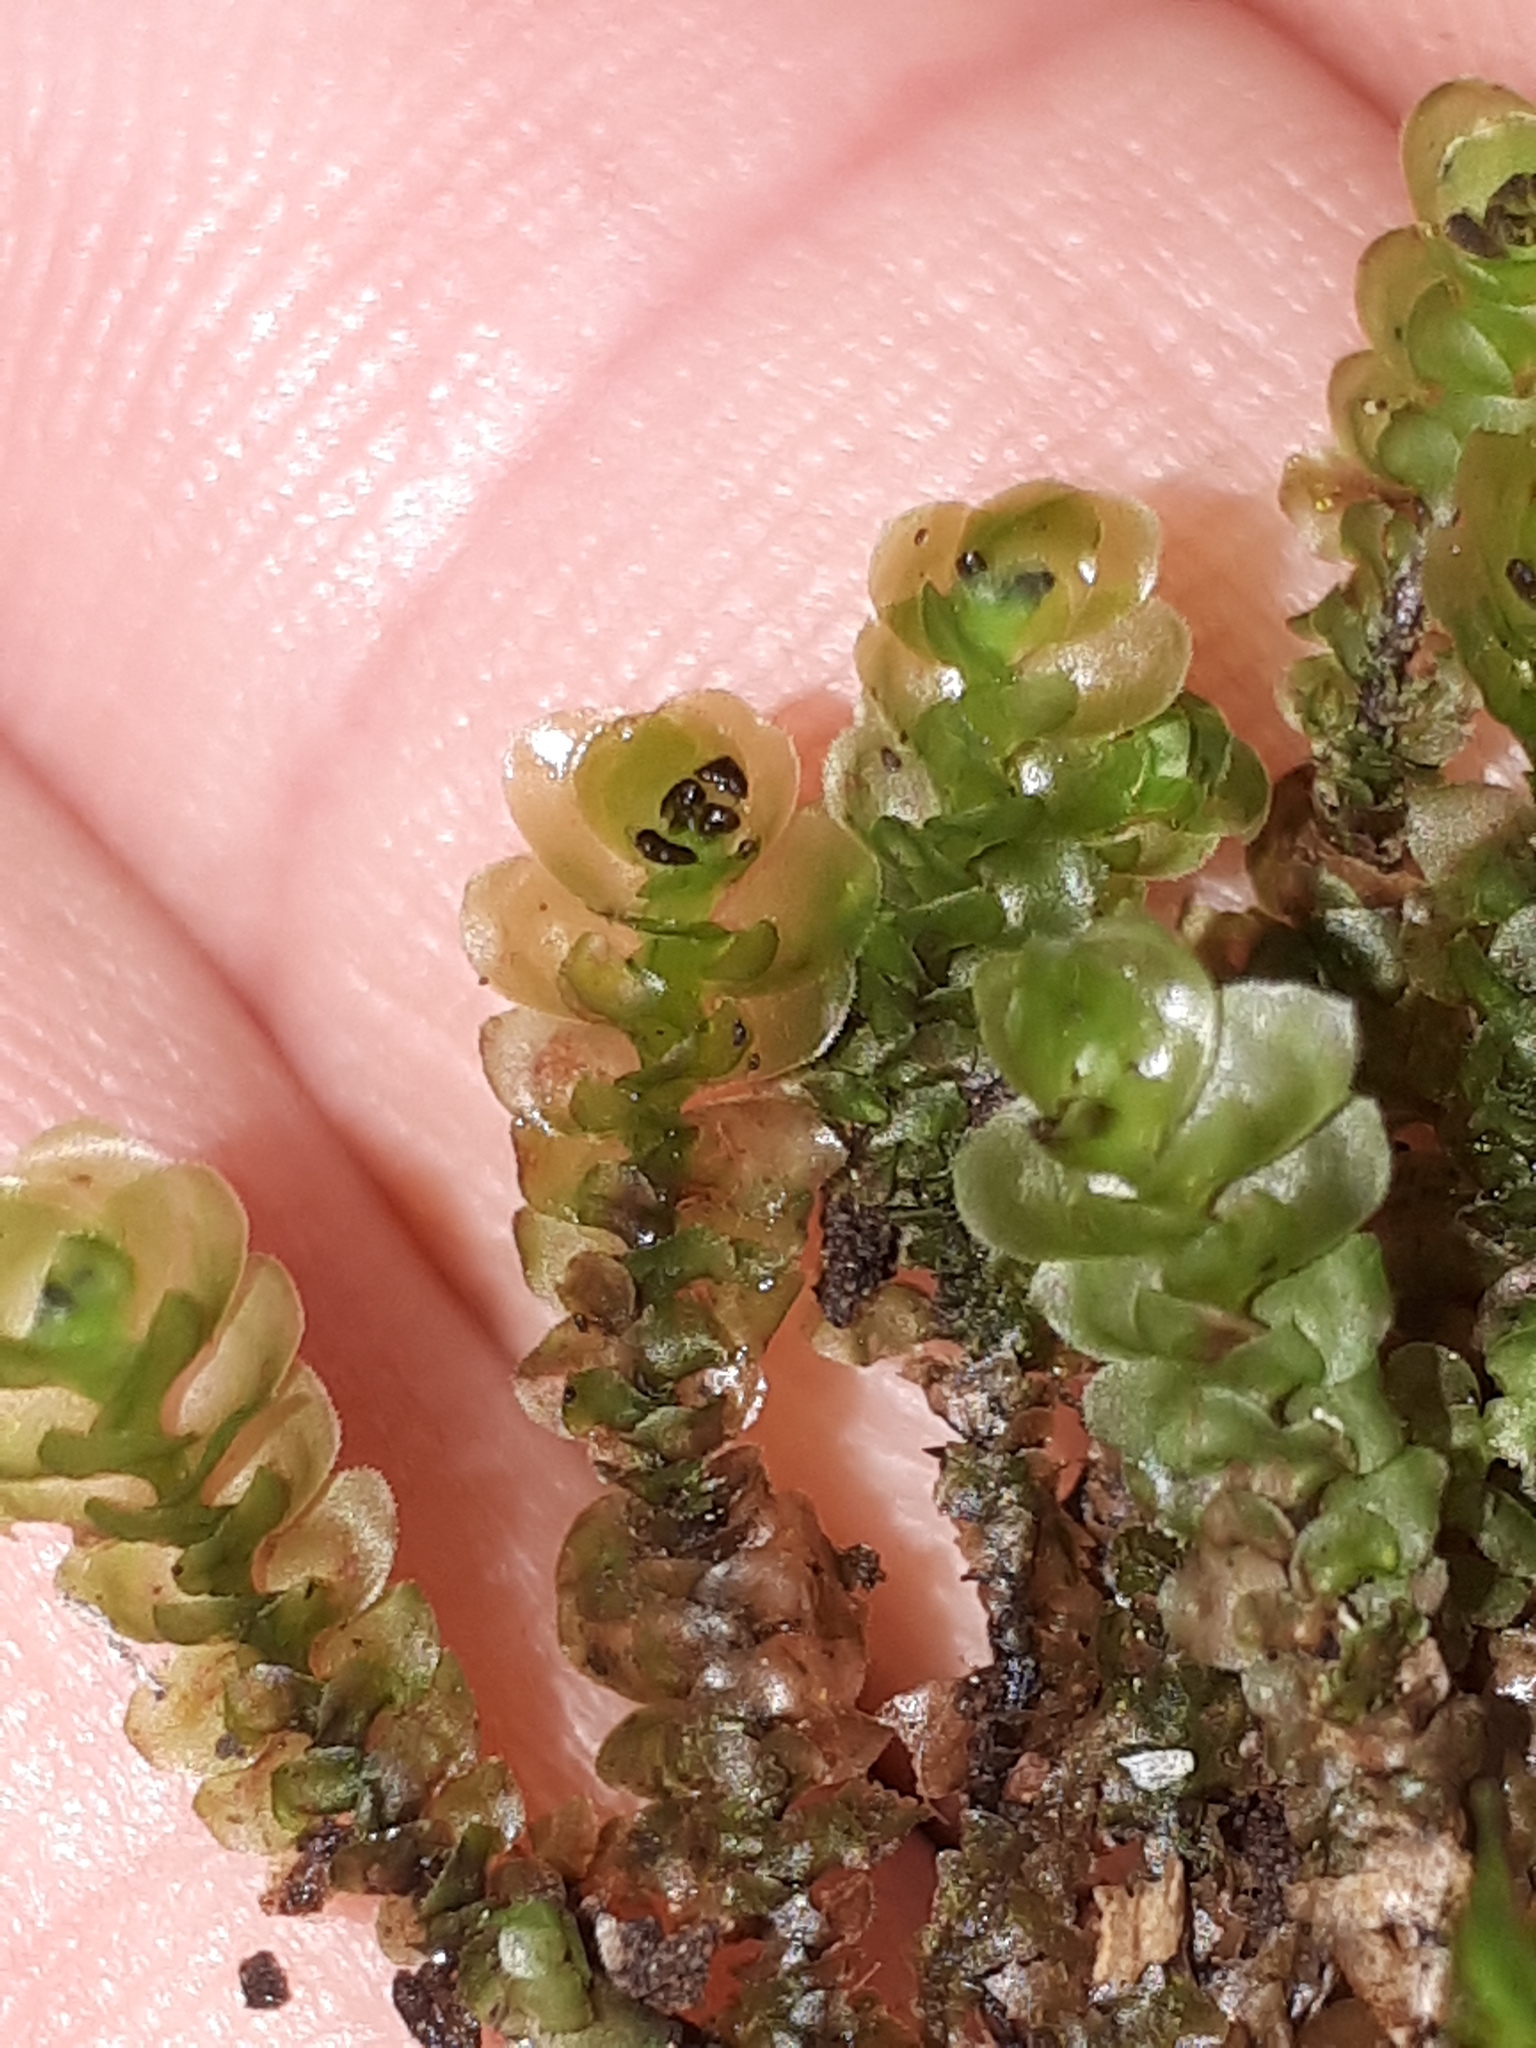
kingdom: Plantae
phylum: Marchantiophyta
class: Jungermanniopsida
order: Jungermanniales
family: Scapaniaceae
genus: Scapania
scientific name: Scapania nemorea
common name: Grove earwort
